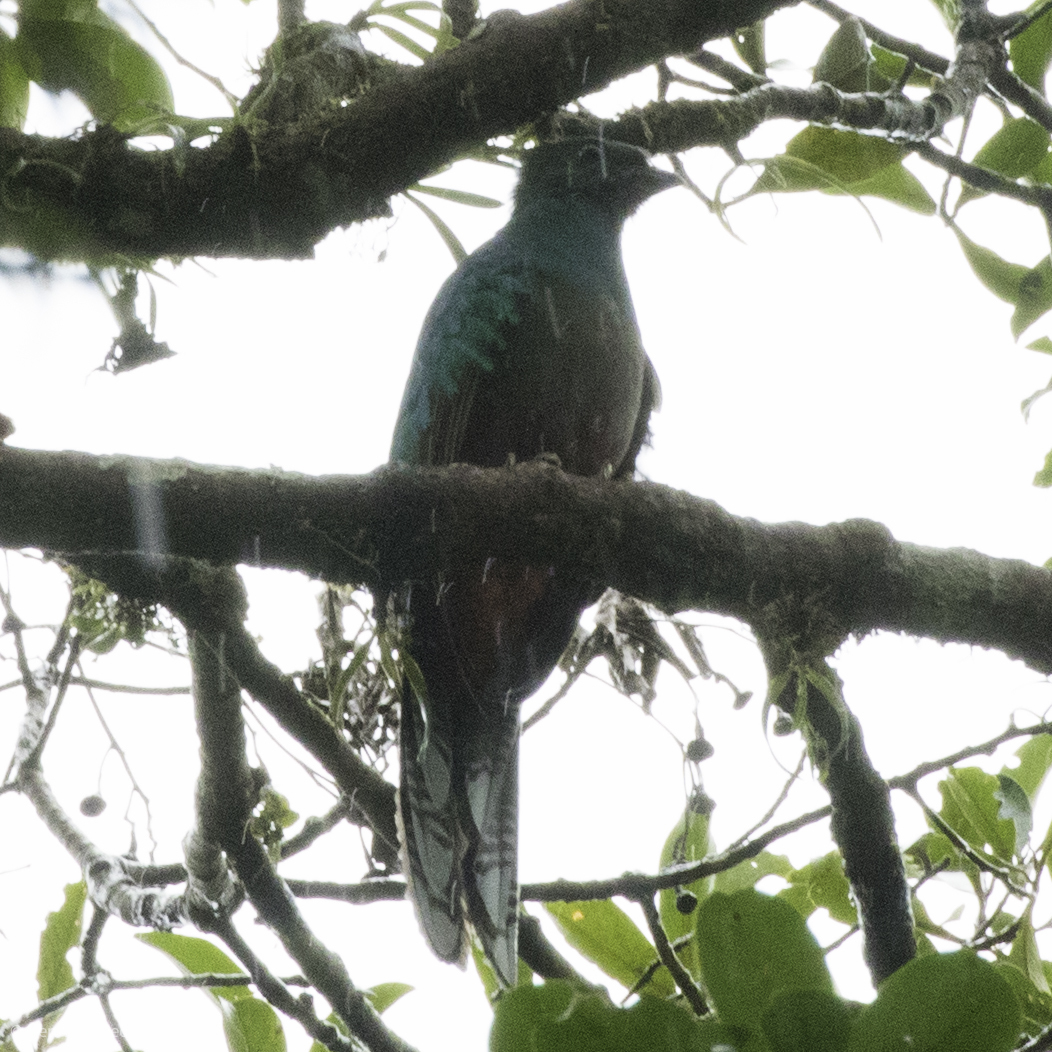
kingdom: Animalia
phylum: Chordata
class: Aves
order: Trogoniformes
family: Trogonidae
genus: Pharomachrus
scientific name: Pharomachrus mocinno
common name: Resplendent quetzal
